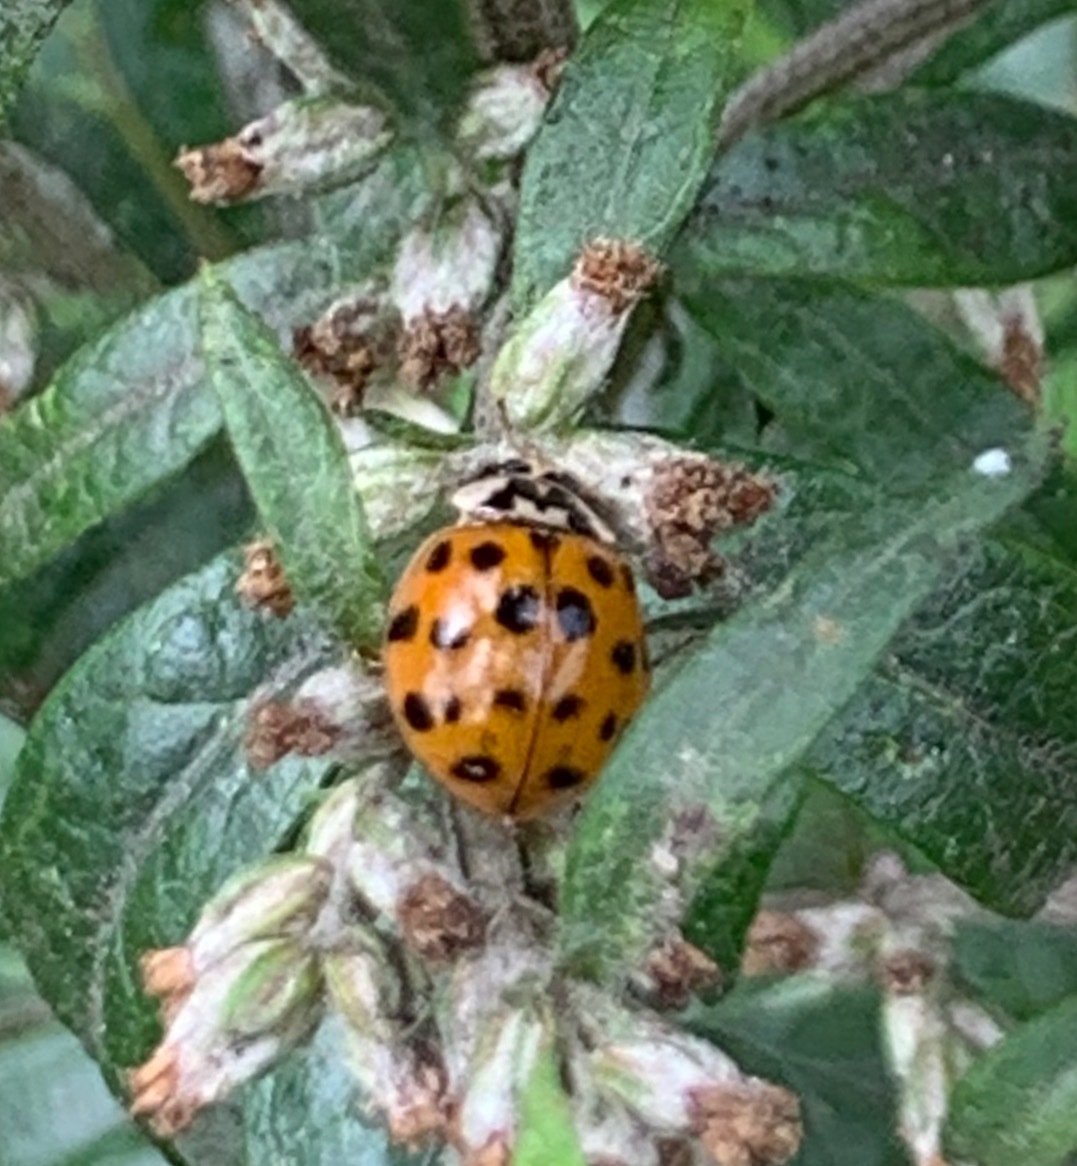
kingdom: Animalia
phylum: Arthropoda
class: Insecta
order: Coleoptera
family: Coccinellidae
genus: Harmonia
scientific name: Harmonia axyridis
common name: Harlequin ladybird
